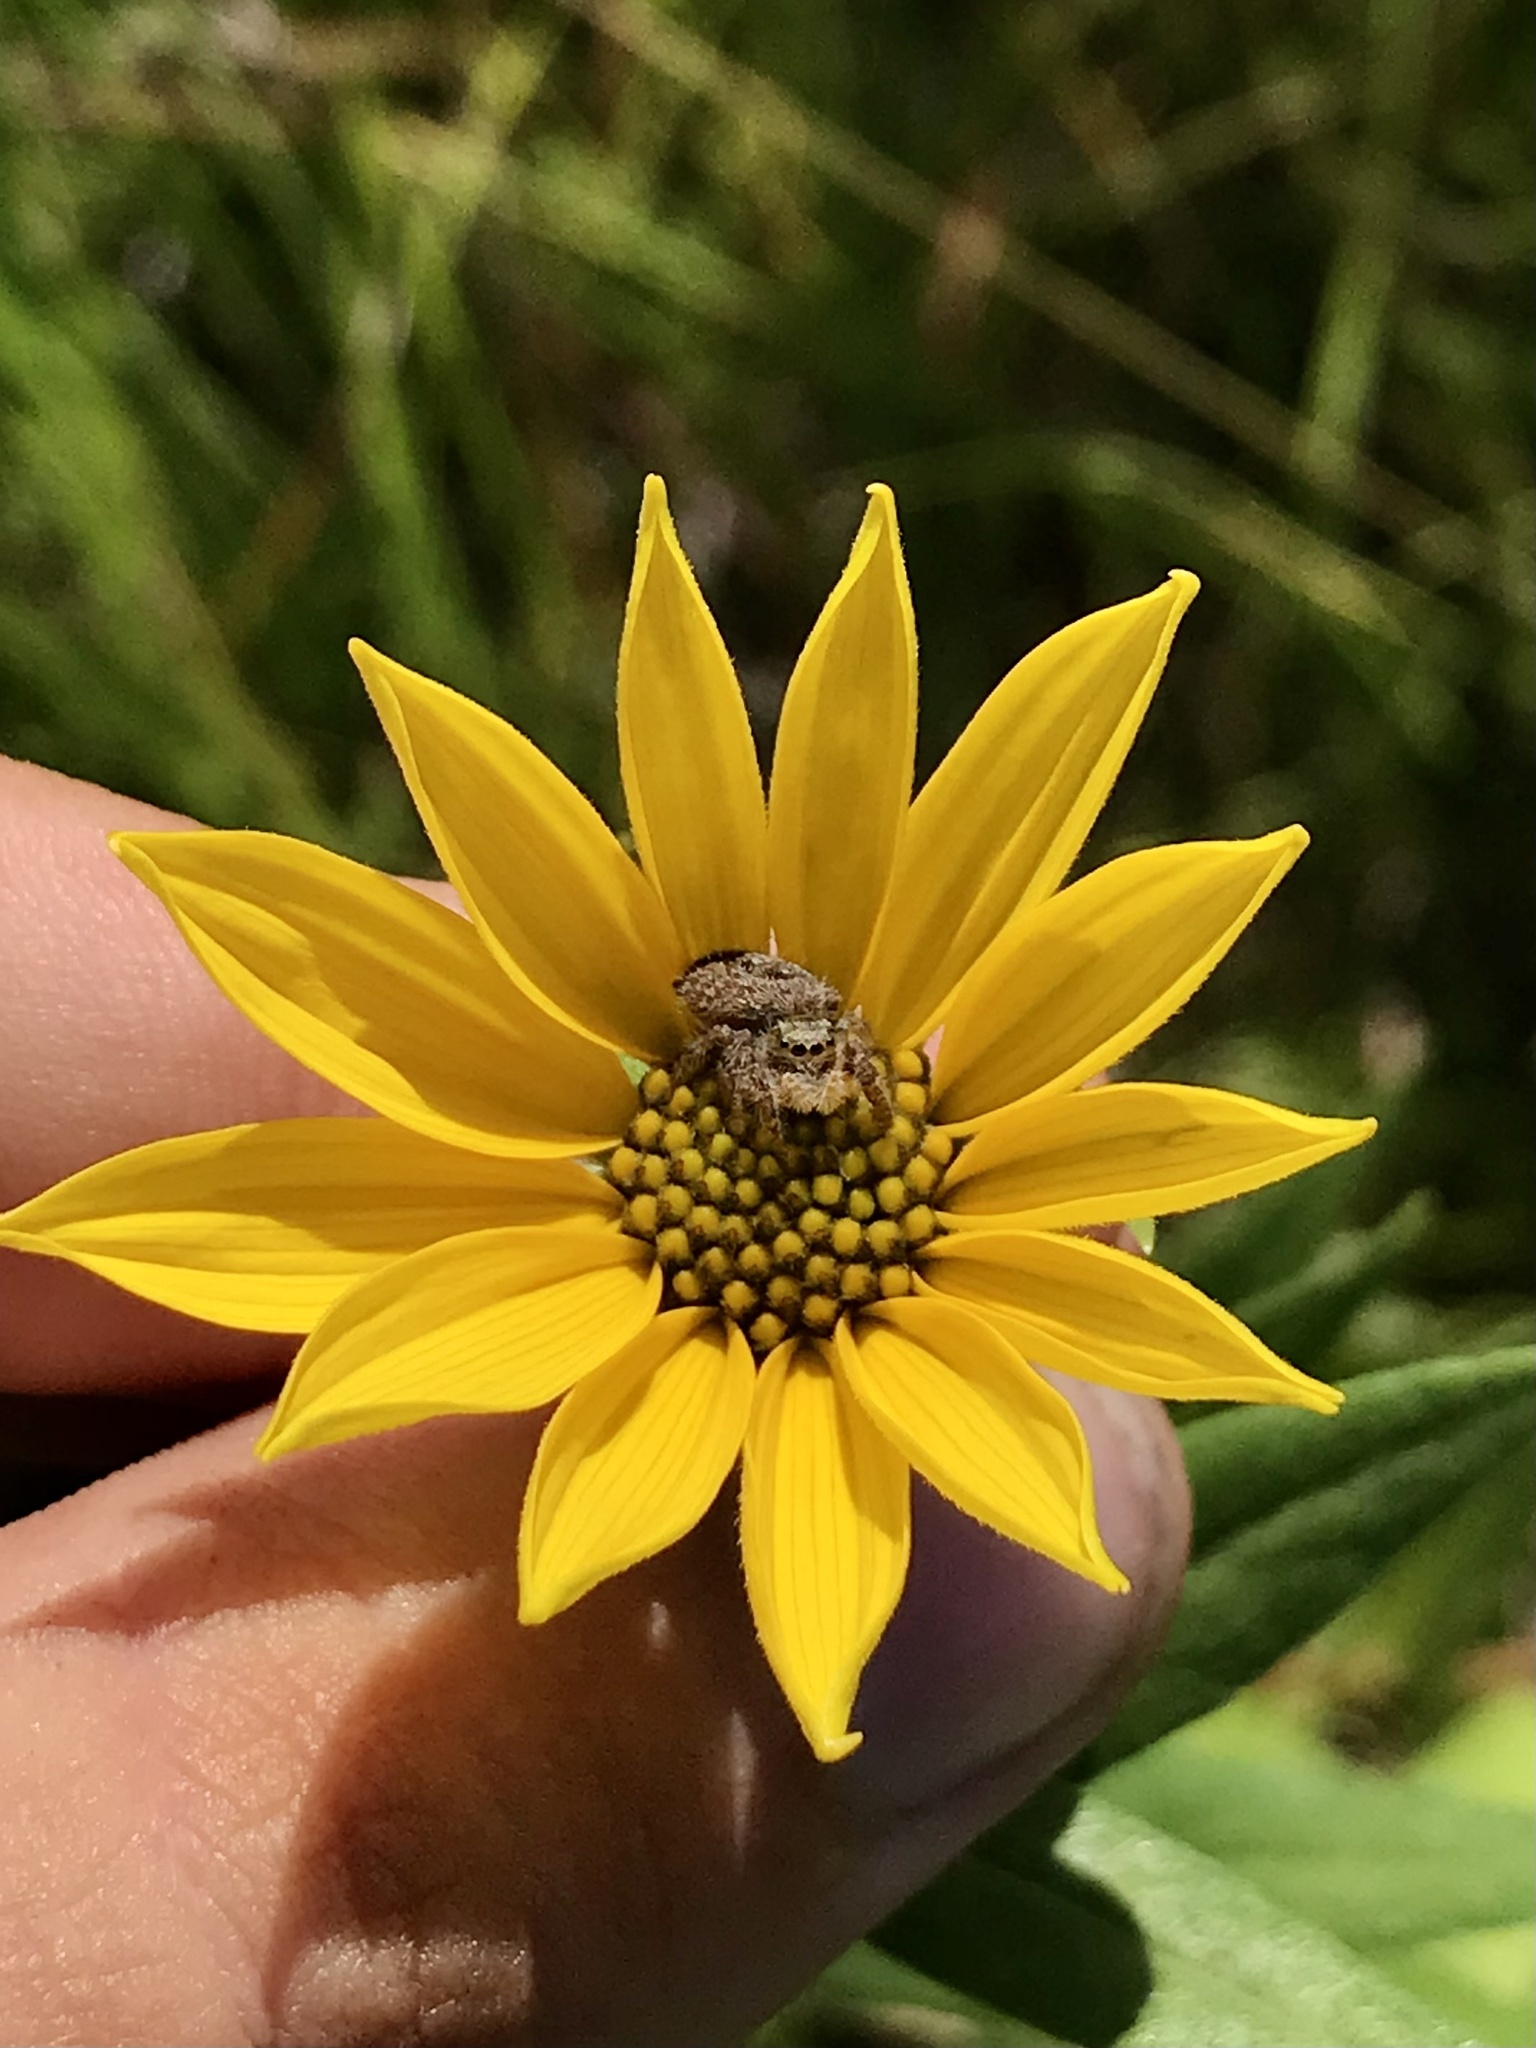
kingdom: Animalia
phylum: Arthropoda
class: Arachnida
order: Araneae
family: Salticidae
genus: Phidippus
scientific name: Phidippus princeps
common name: Grayish jumping spider
